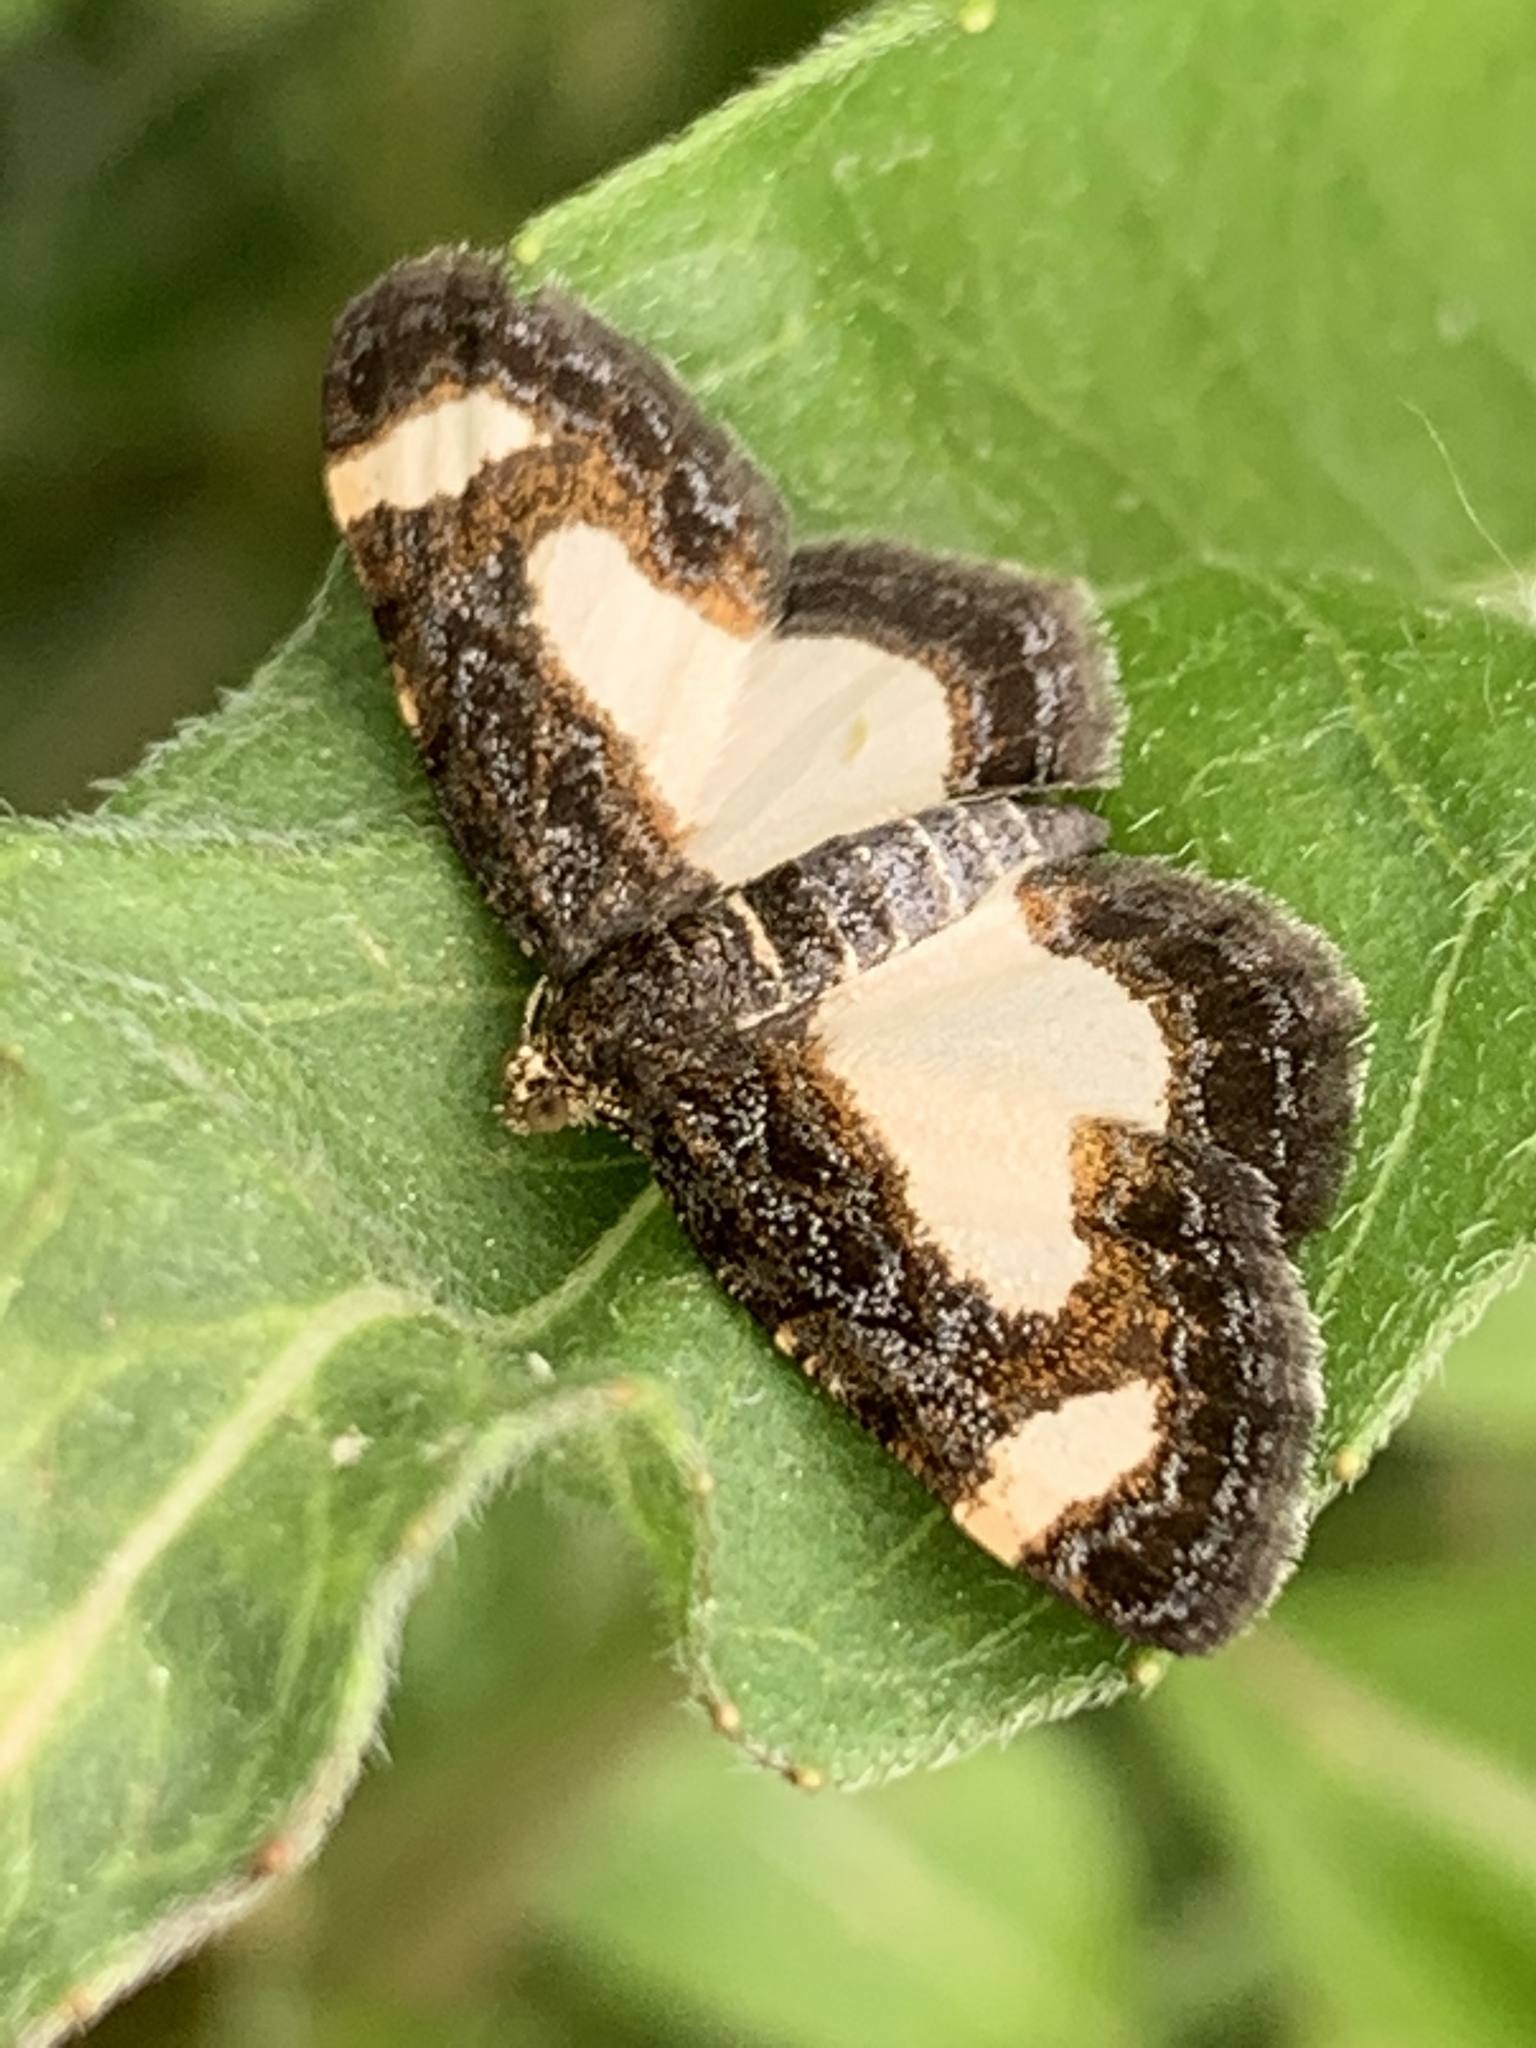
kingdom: Animalia
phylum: Arthropoda
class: Insecta
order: Lepidoptera
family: Geometridae
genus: Heliomata
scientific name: Heliomata cycladata
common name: Common spring moth
